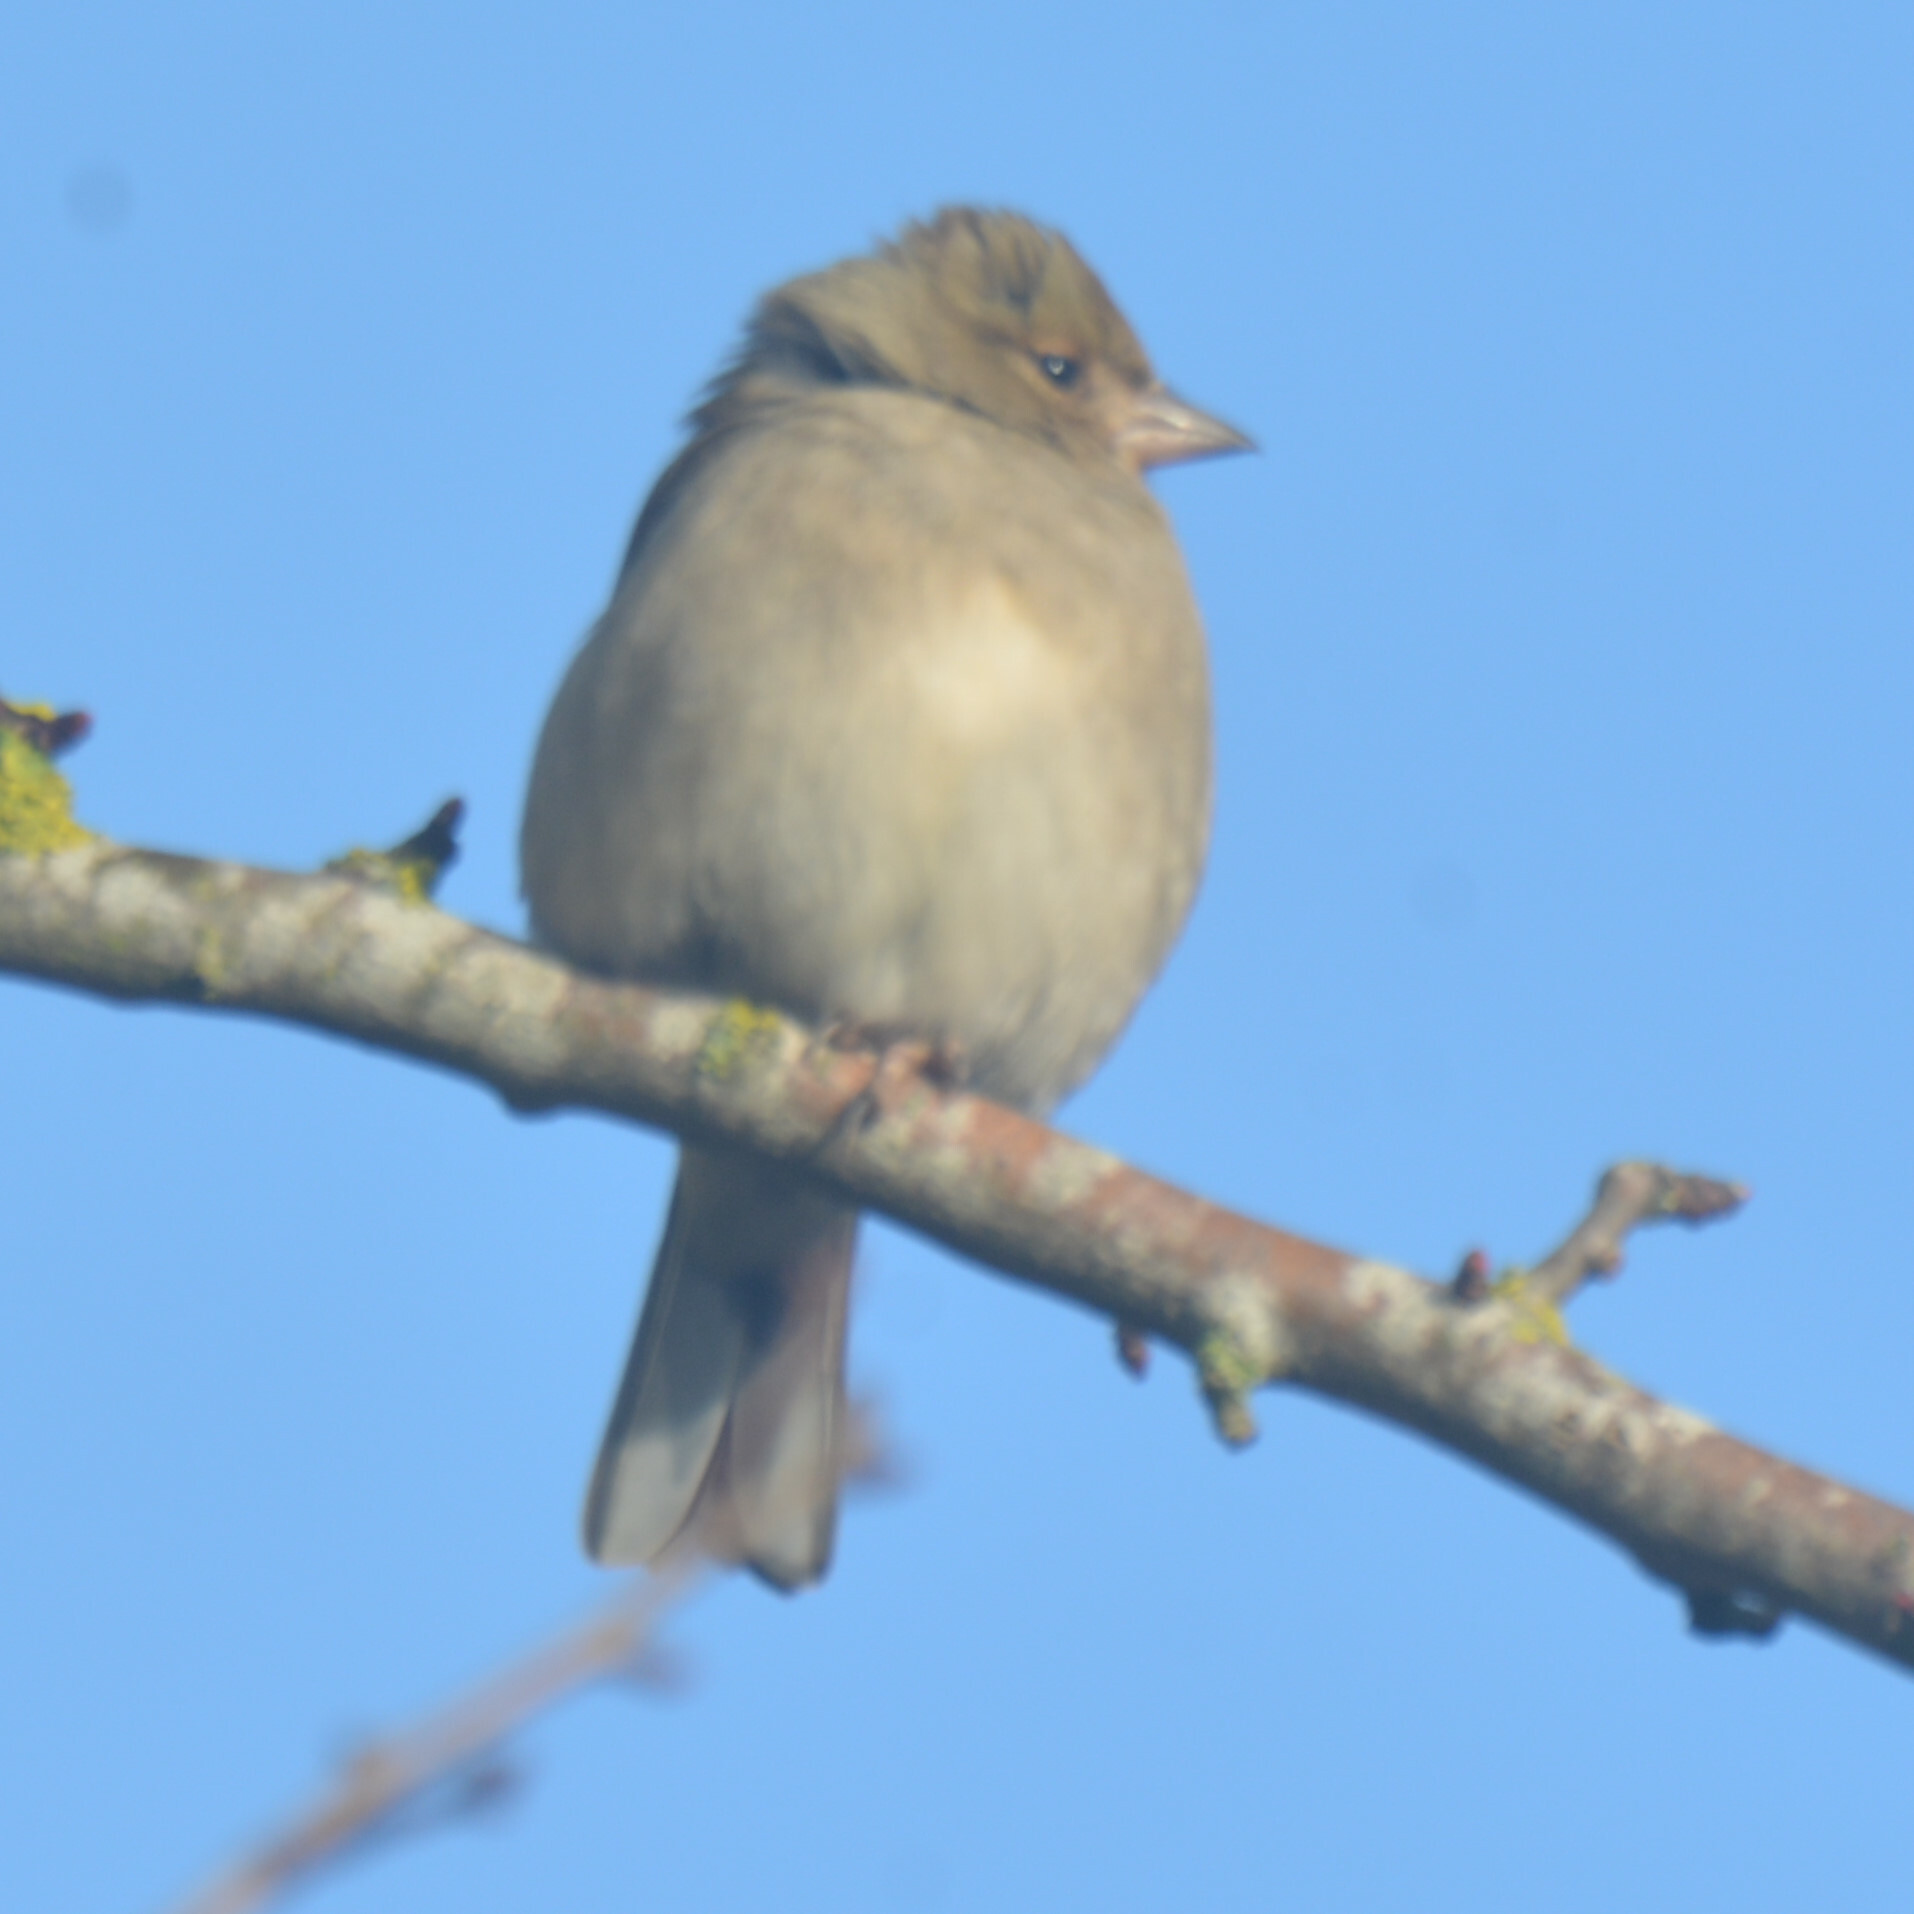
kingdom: Animalia
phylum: Chordata
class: Aves
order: Passeriformes
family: Fringillidae
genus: Fringilla
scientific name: Fringilla coelebs
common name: Common chaffinch
